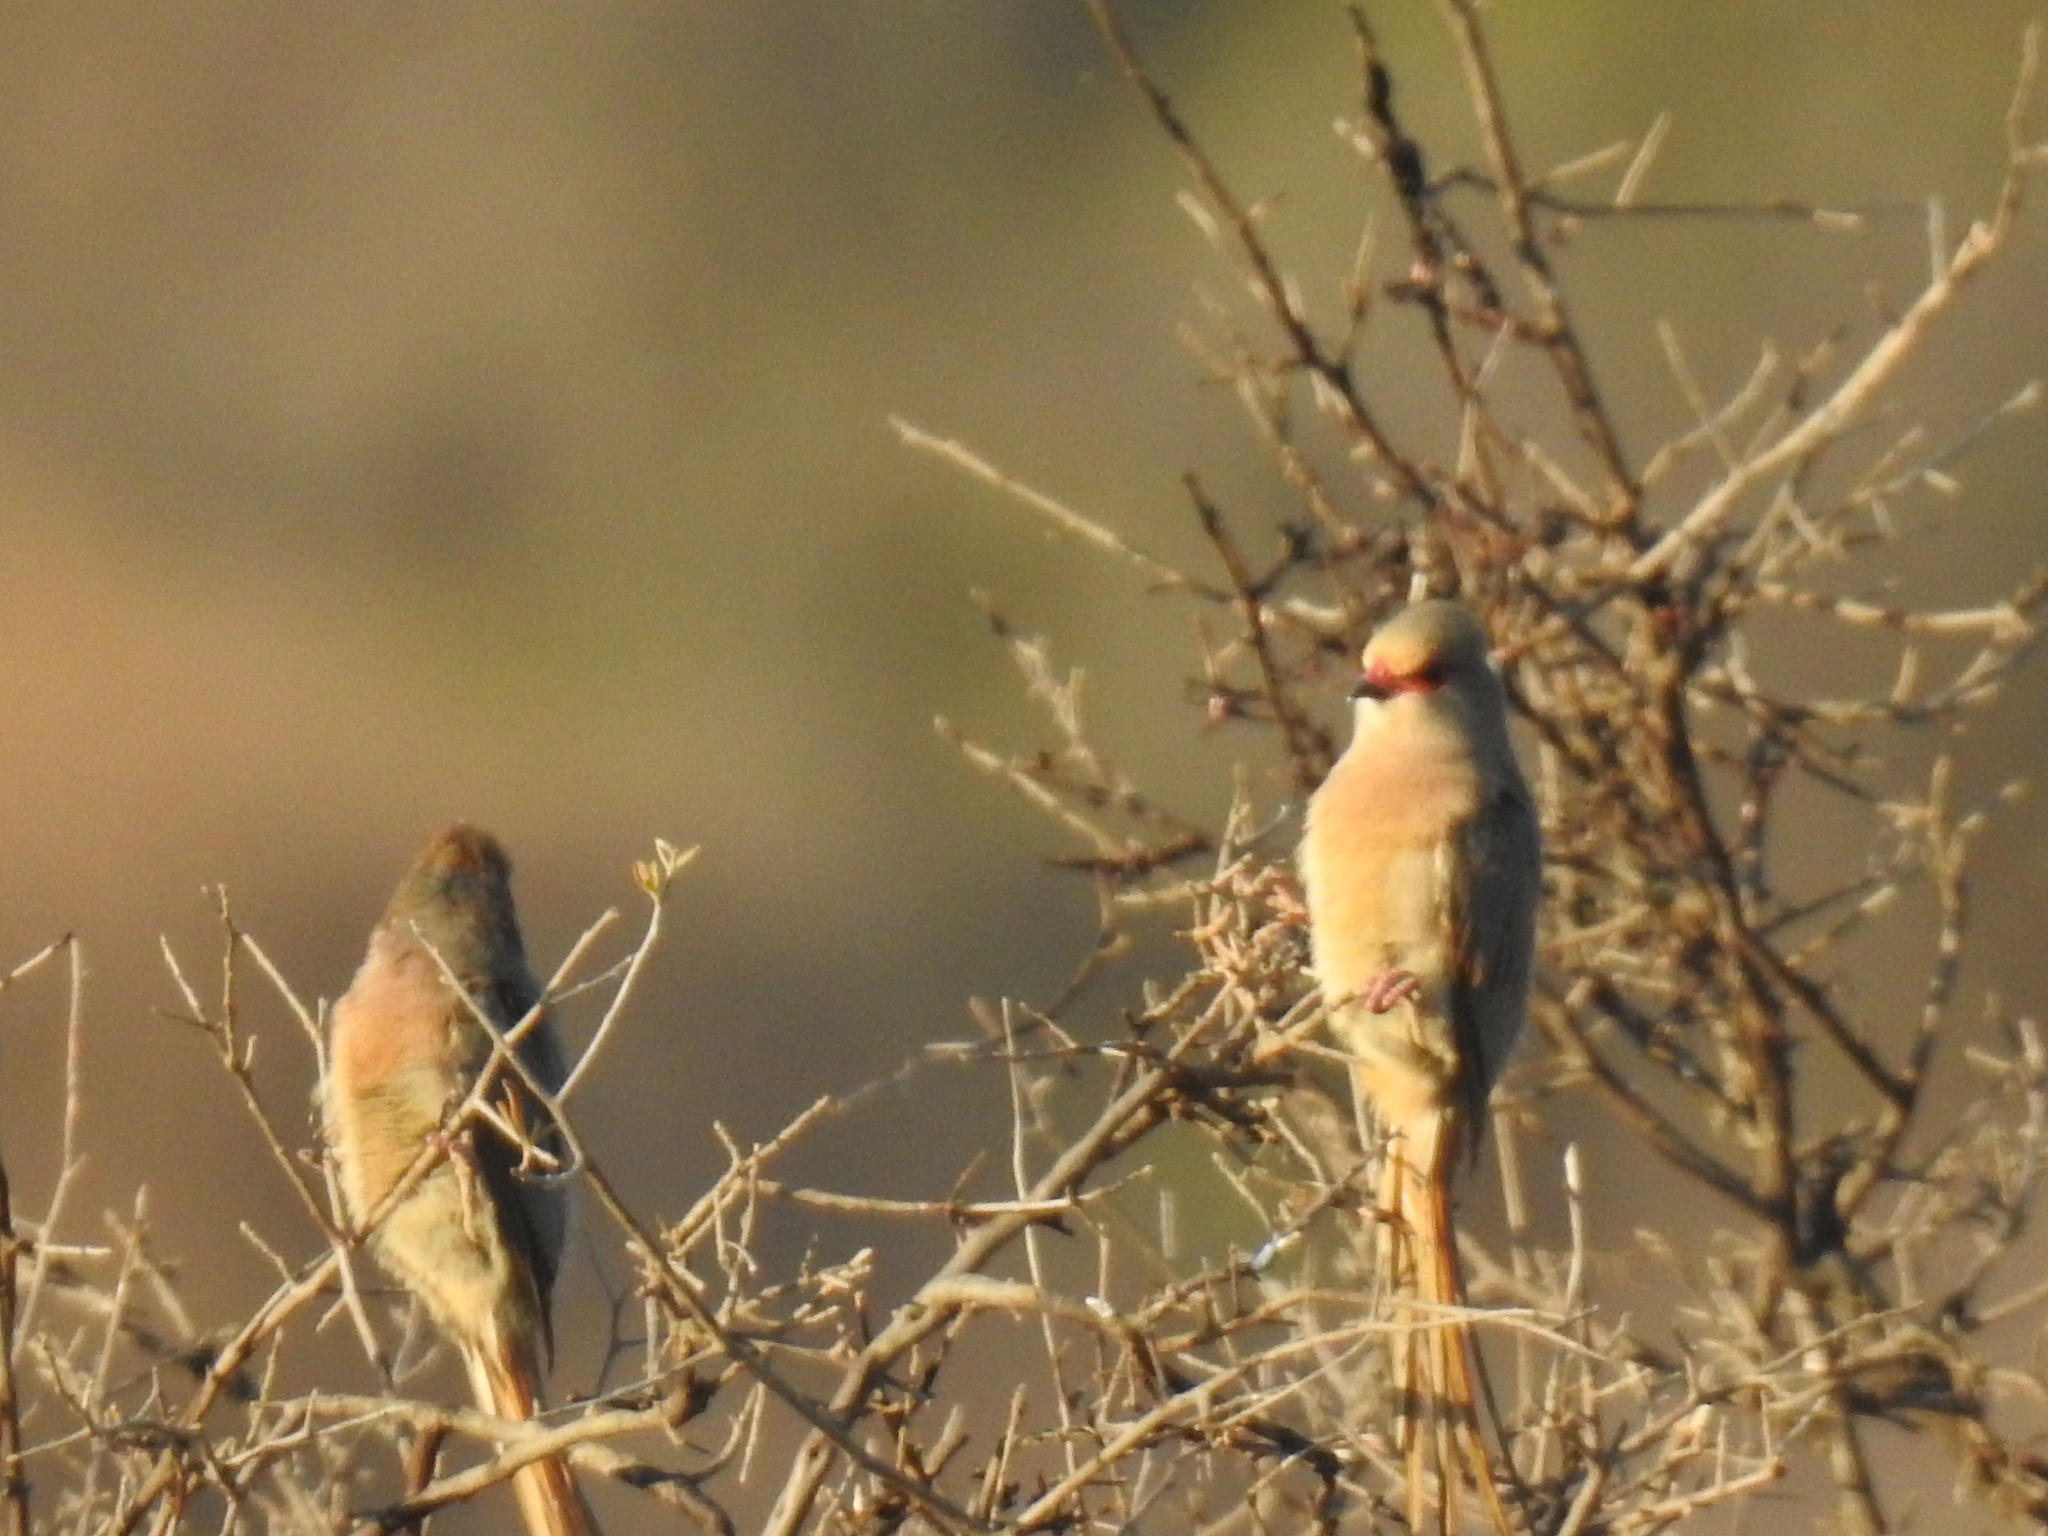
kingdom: Animalia
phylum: Chordata
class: Aves
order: Coliiformes
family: Coliidae
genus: Urocolius
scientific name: Urocolius indicus
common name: Red-faced mousebird
